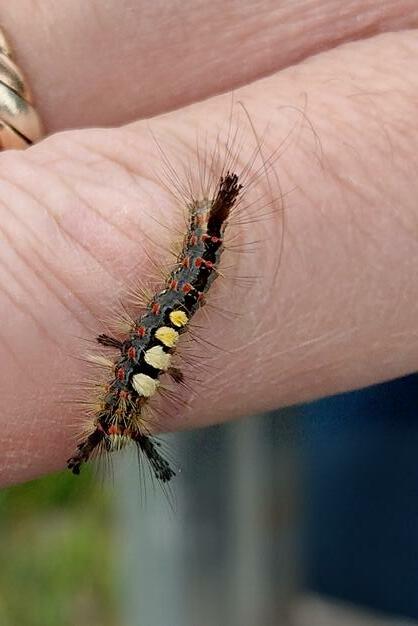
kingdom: Animalia
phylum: Arthropoda
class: Insecta
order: Lepidoptera
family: Erebidae
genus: Orgyia
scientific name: Orgyia antiqua
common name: Vapourer
